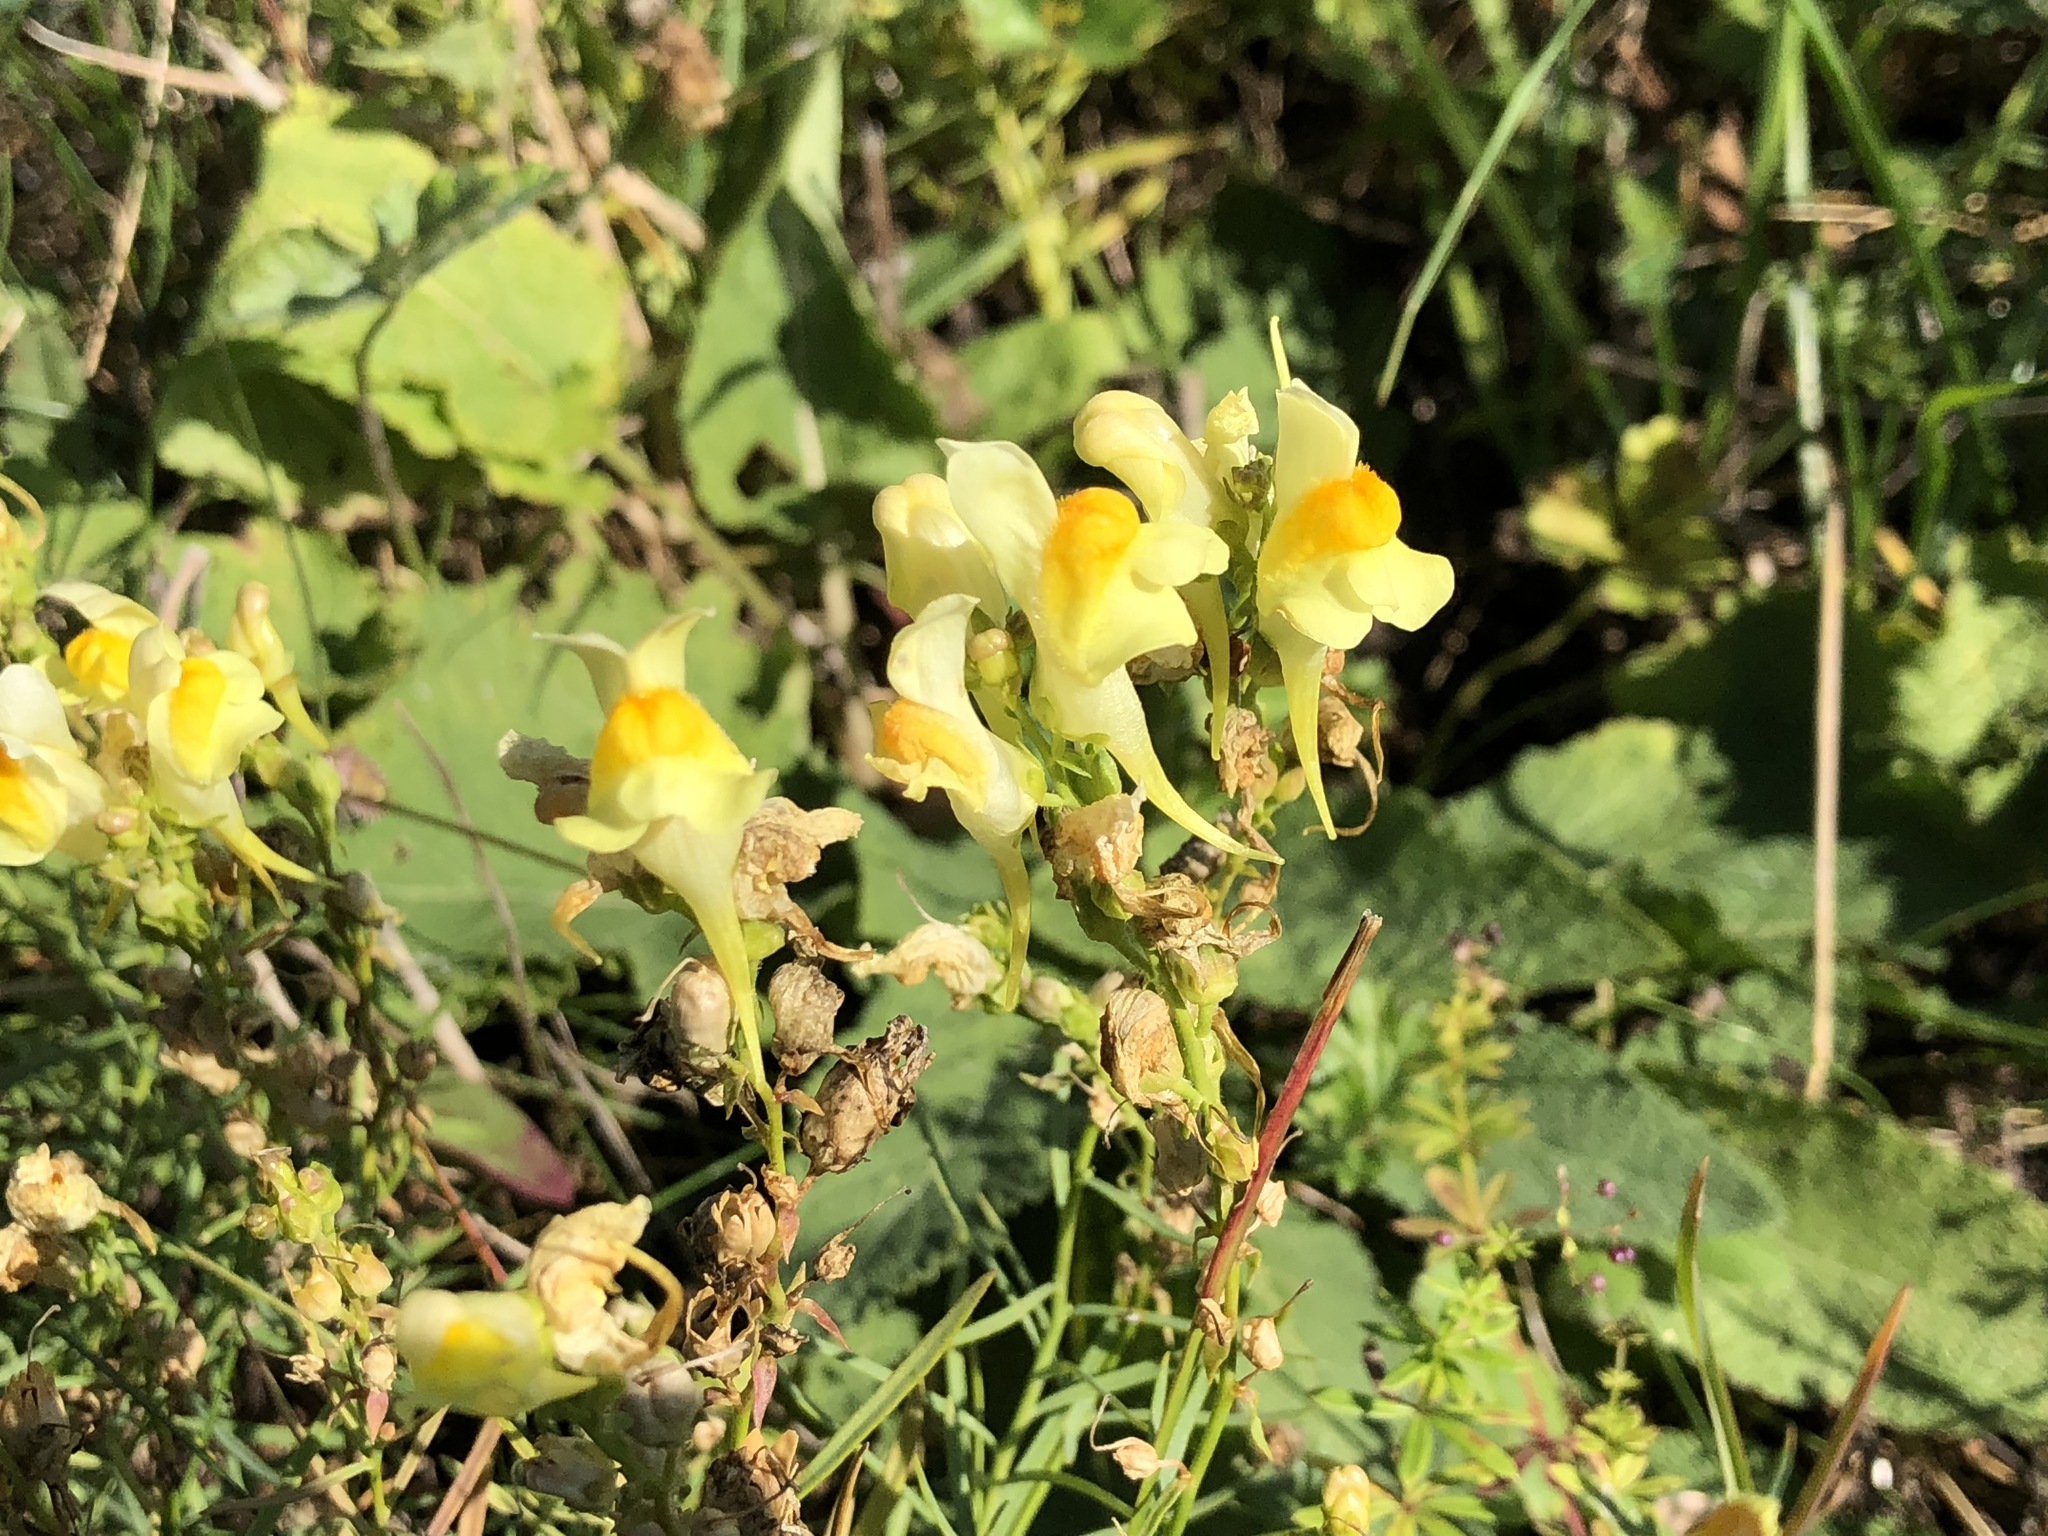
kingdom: Plantae
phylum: Tracheophyta
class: Magnoliopsida
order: Lamiales
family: Plantaginaceae
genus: Linaria
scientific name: Linaria vulgaris
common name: Butter and eggs
